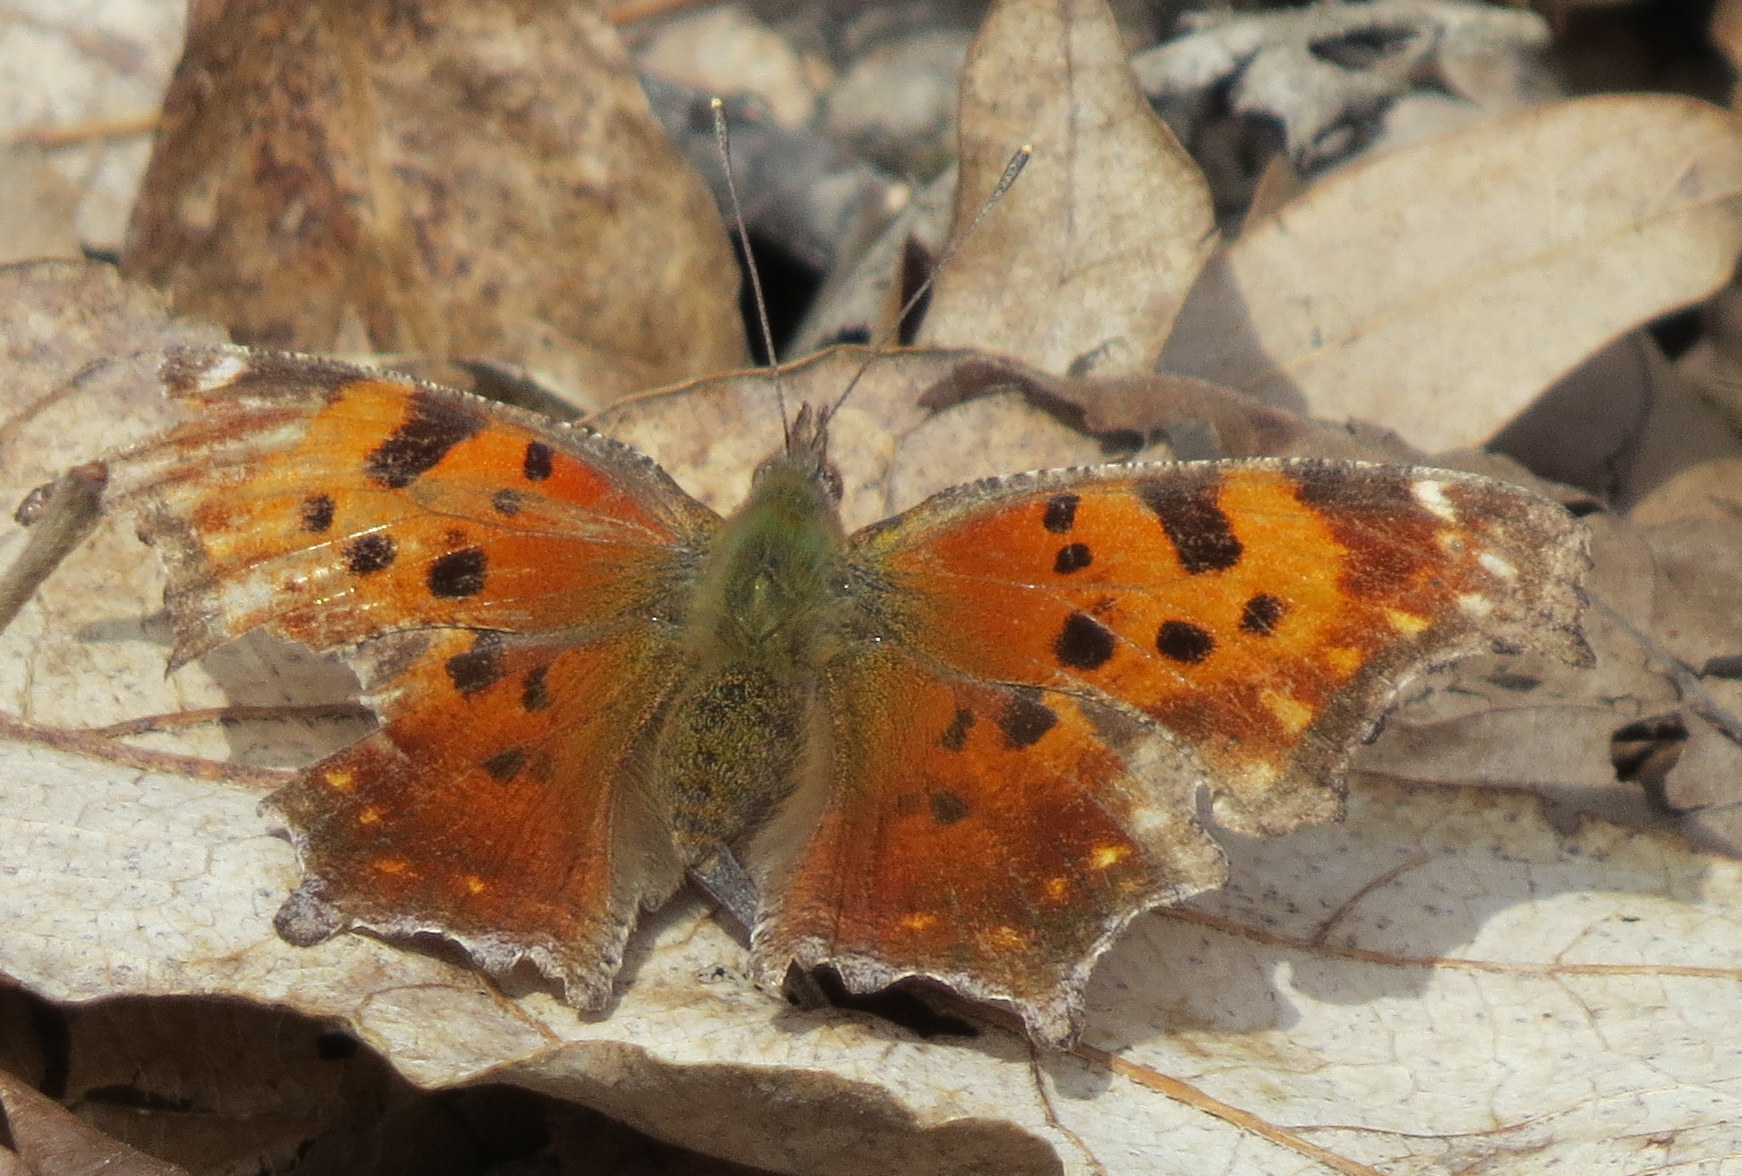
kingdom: Animalia
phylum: Arthropoda
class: Insecta
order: Lepidoptera
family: Nymphalidae
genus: Polygonia
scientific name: Polygonia comma
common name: Eastern comma
